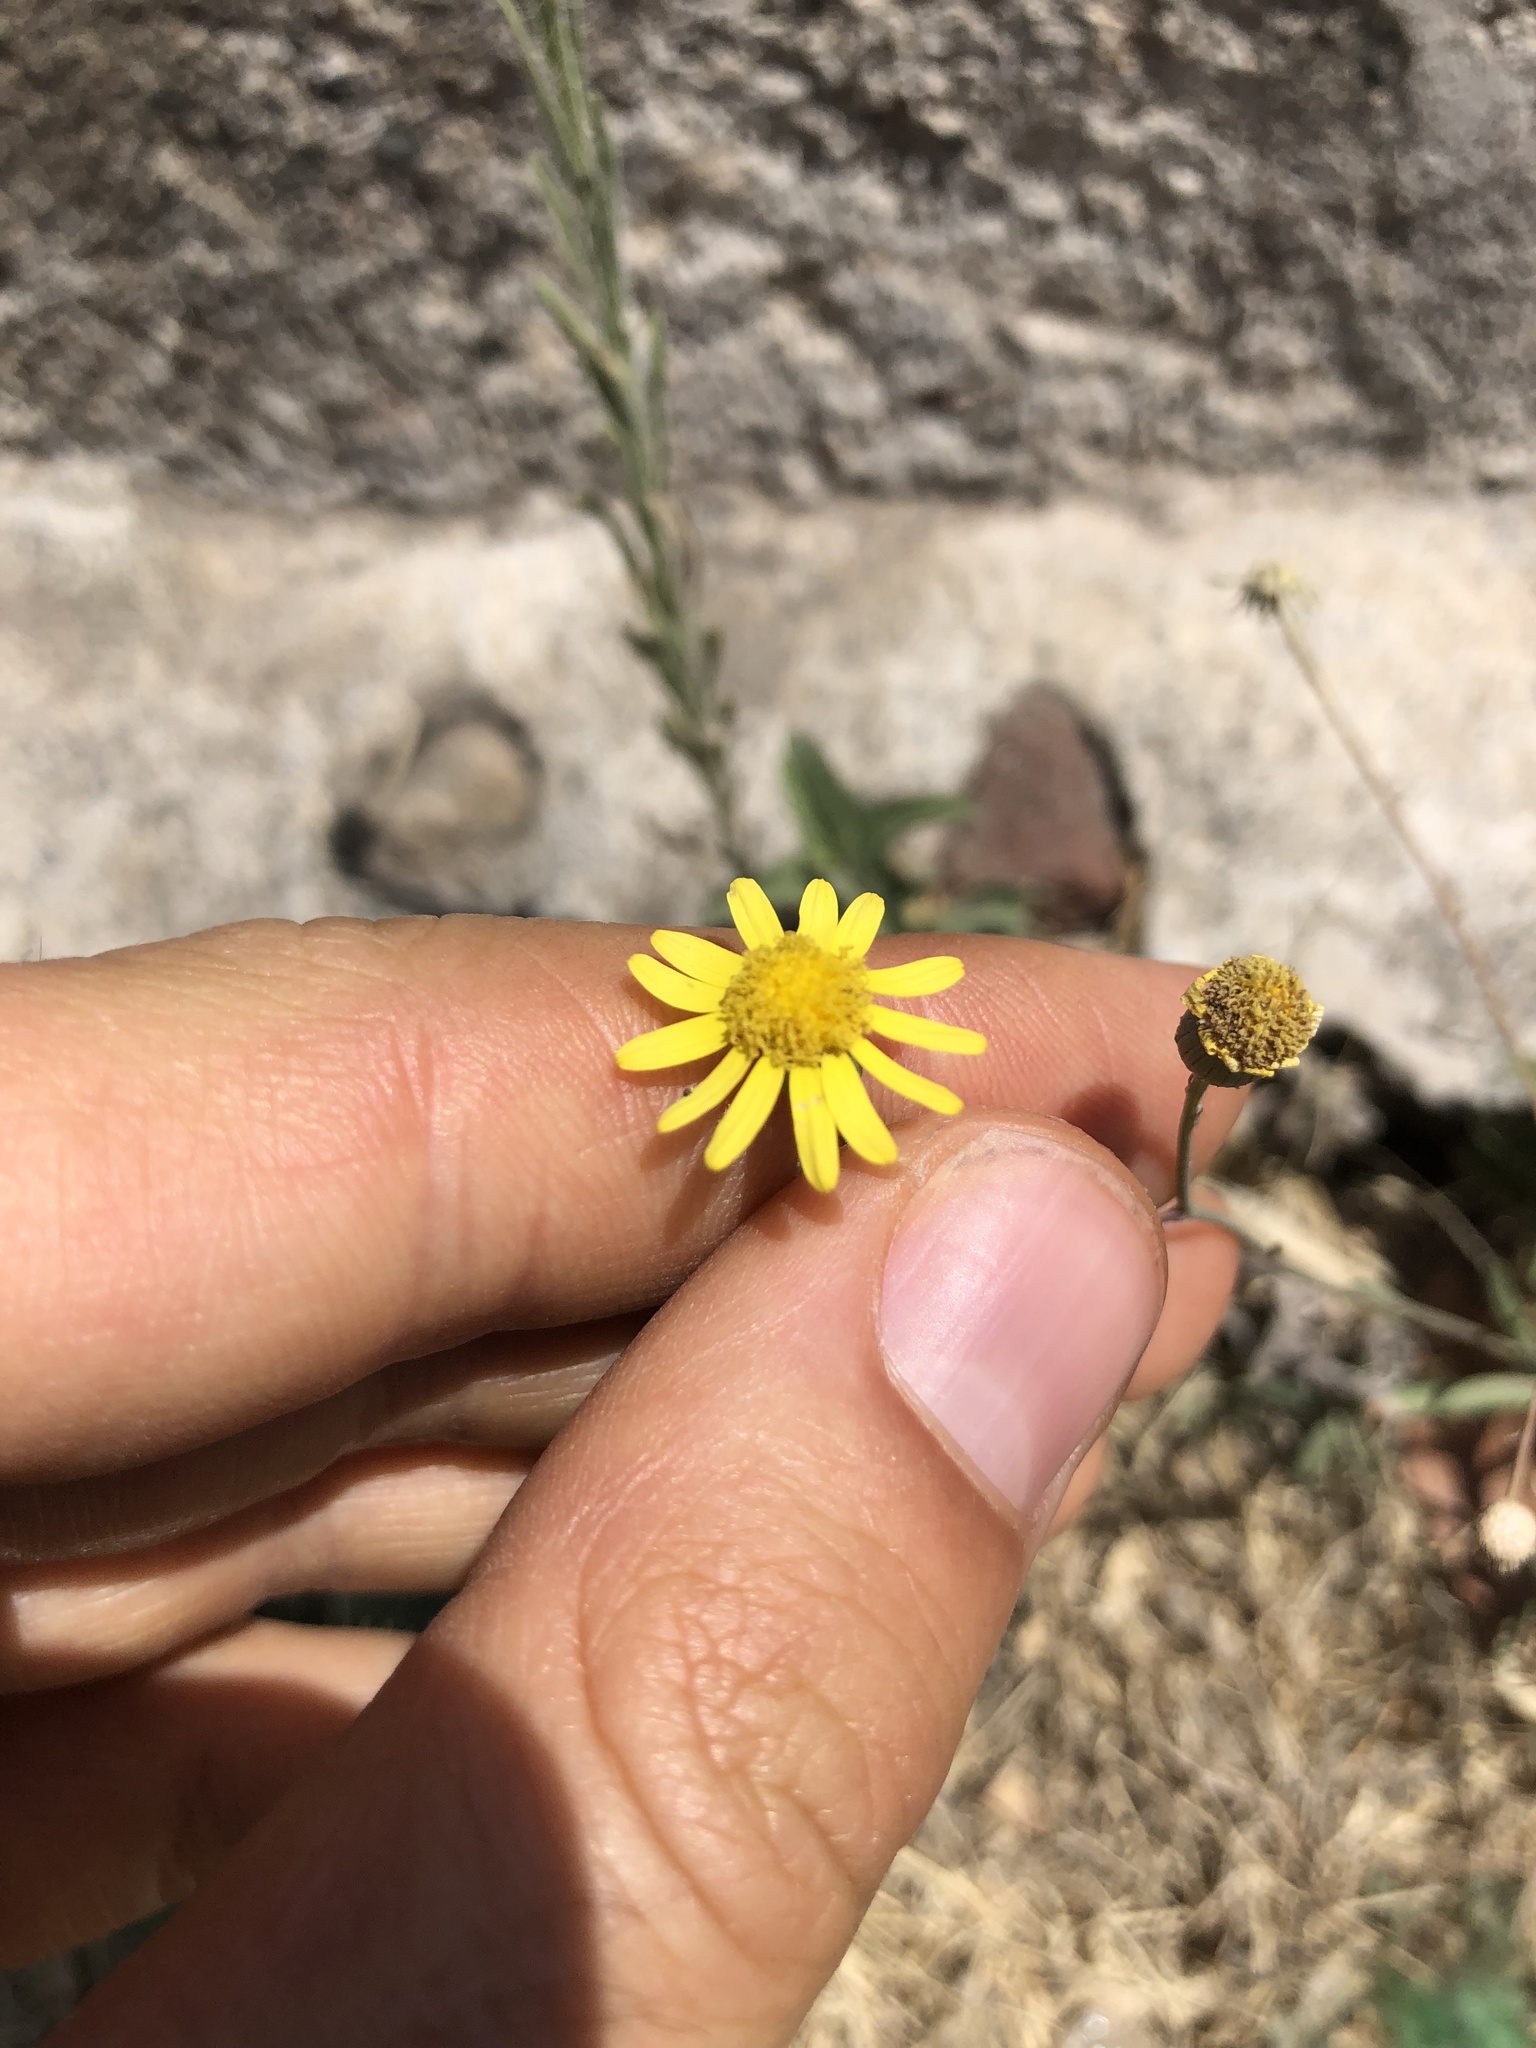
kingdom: Plantae
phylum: Tracheophyta
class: Magnoliopsida
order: Asterales
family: Asteraceae
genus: Senecio
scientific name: Senecio inaequidens
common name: Narrow-leaved ragwort
